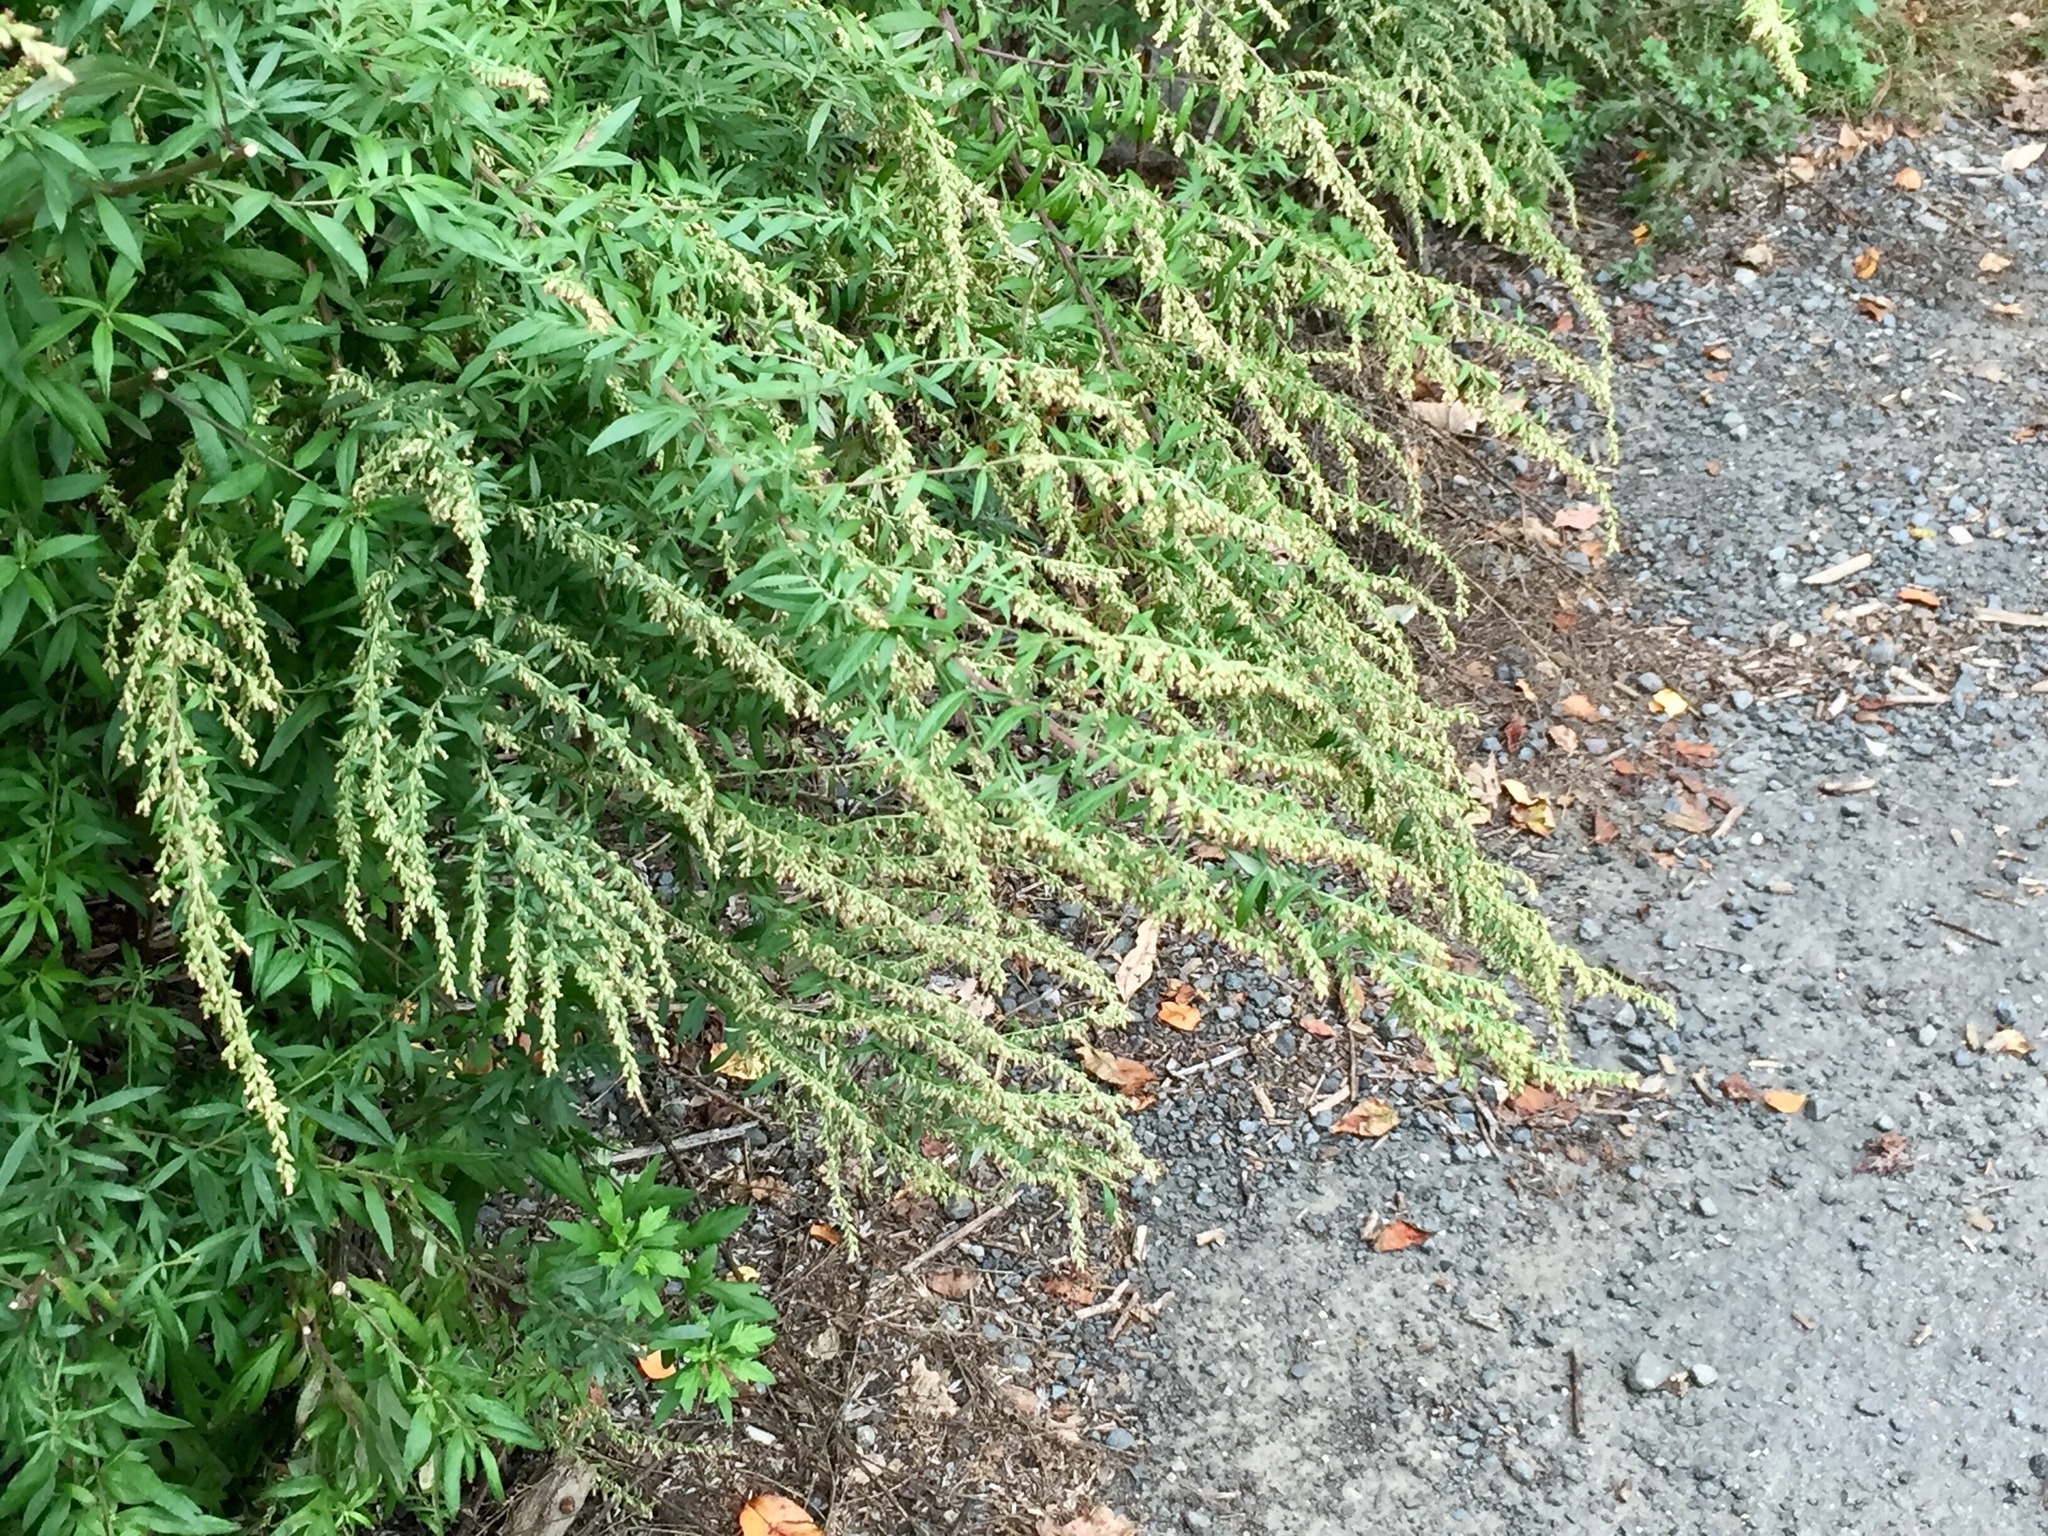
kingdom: Plantae
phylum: Tracheophyta
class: Magnoliopsida
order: Asterales
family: Asteraceae
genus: Artemisia
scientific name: Artemisia vulgaris
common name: Mugwort
